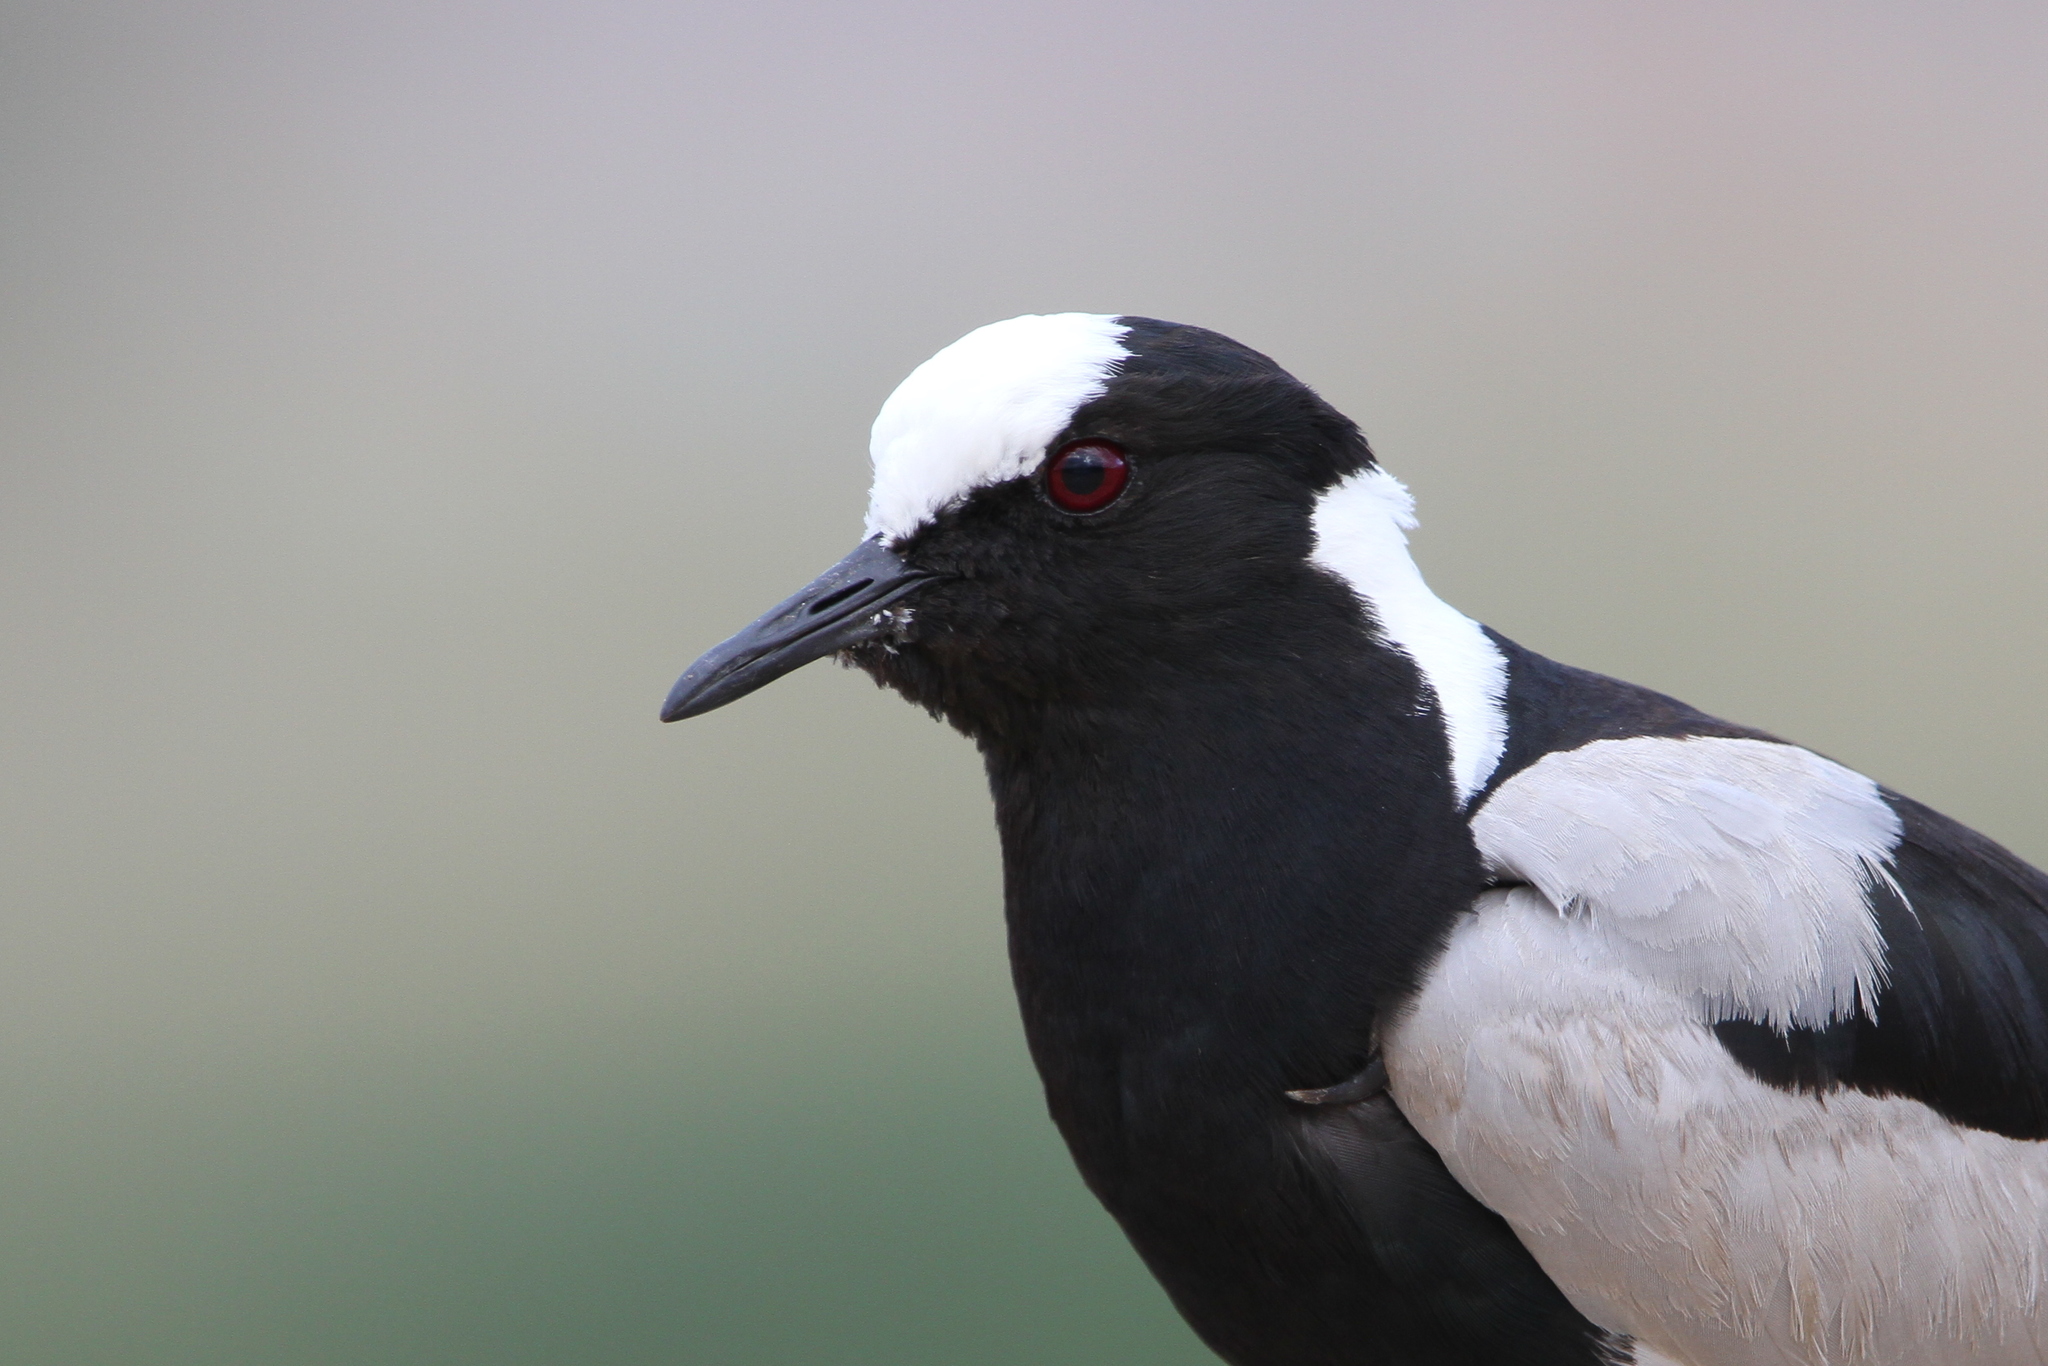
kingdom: Animalia
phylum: Chordata
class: Aves
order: Charadriiformes
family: Charadriidae
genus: Vanellus
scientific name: Vanellus armatus
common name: Blacksmith lapwing
